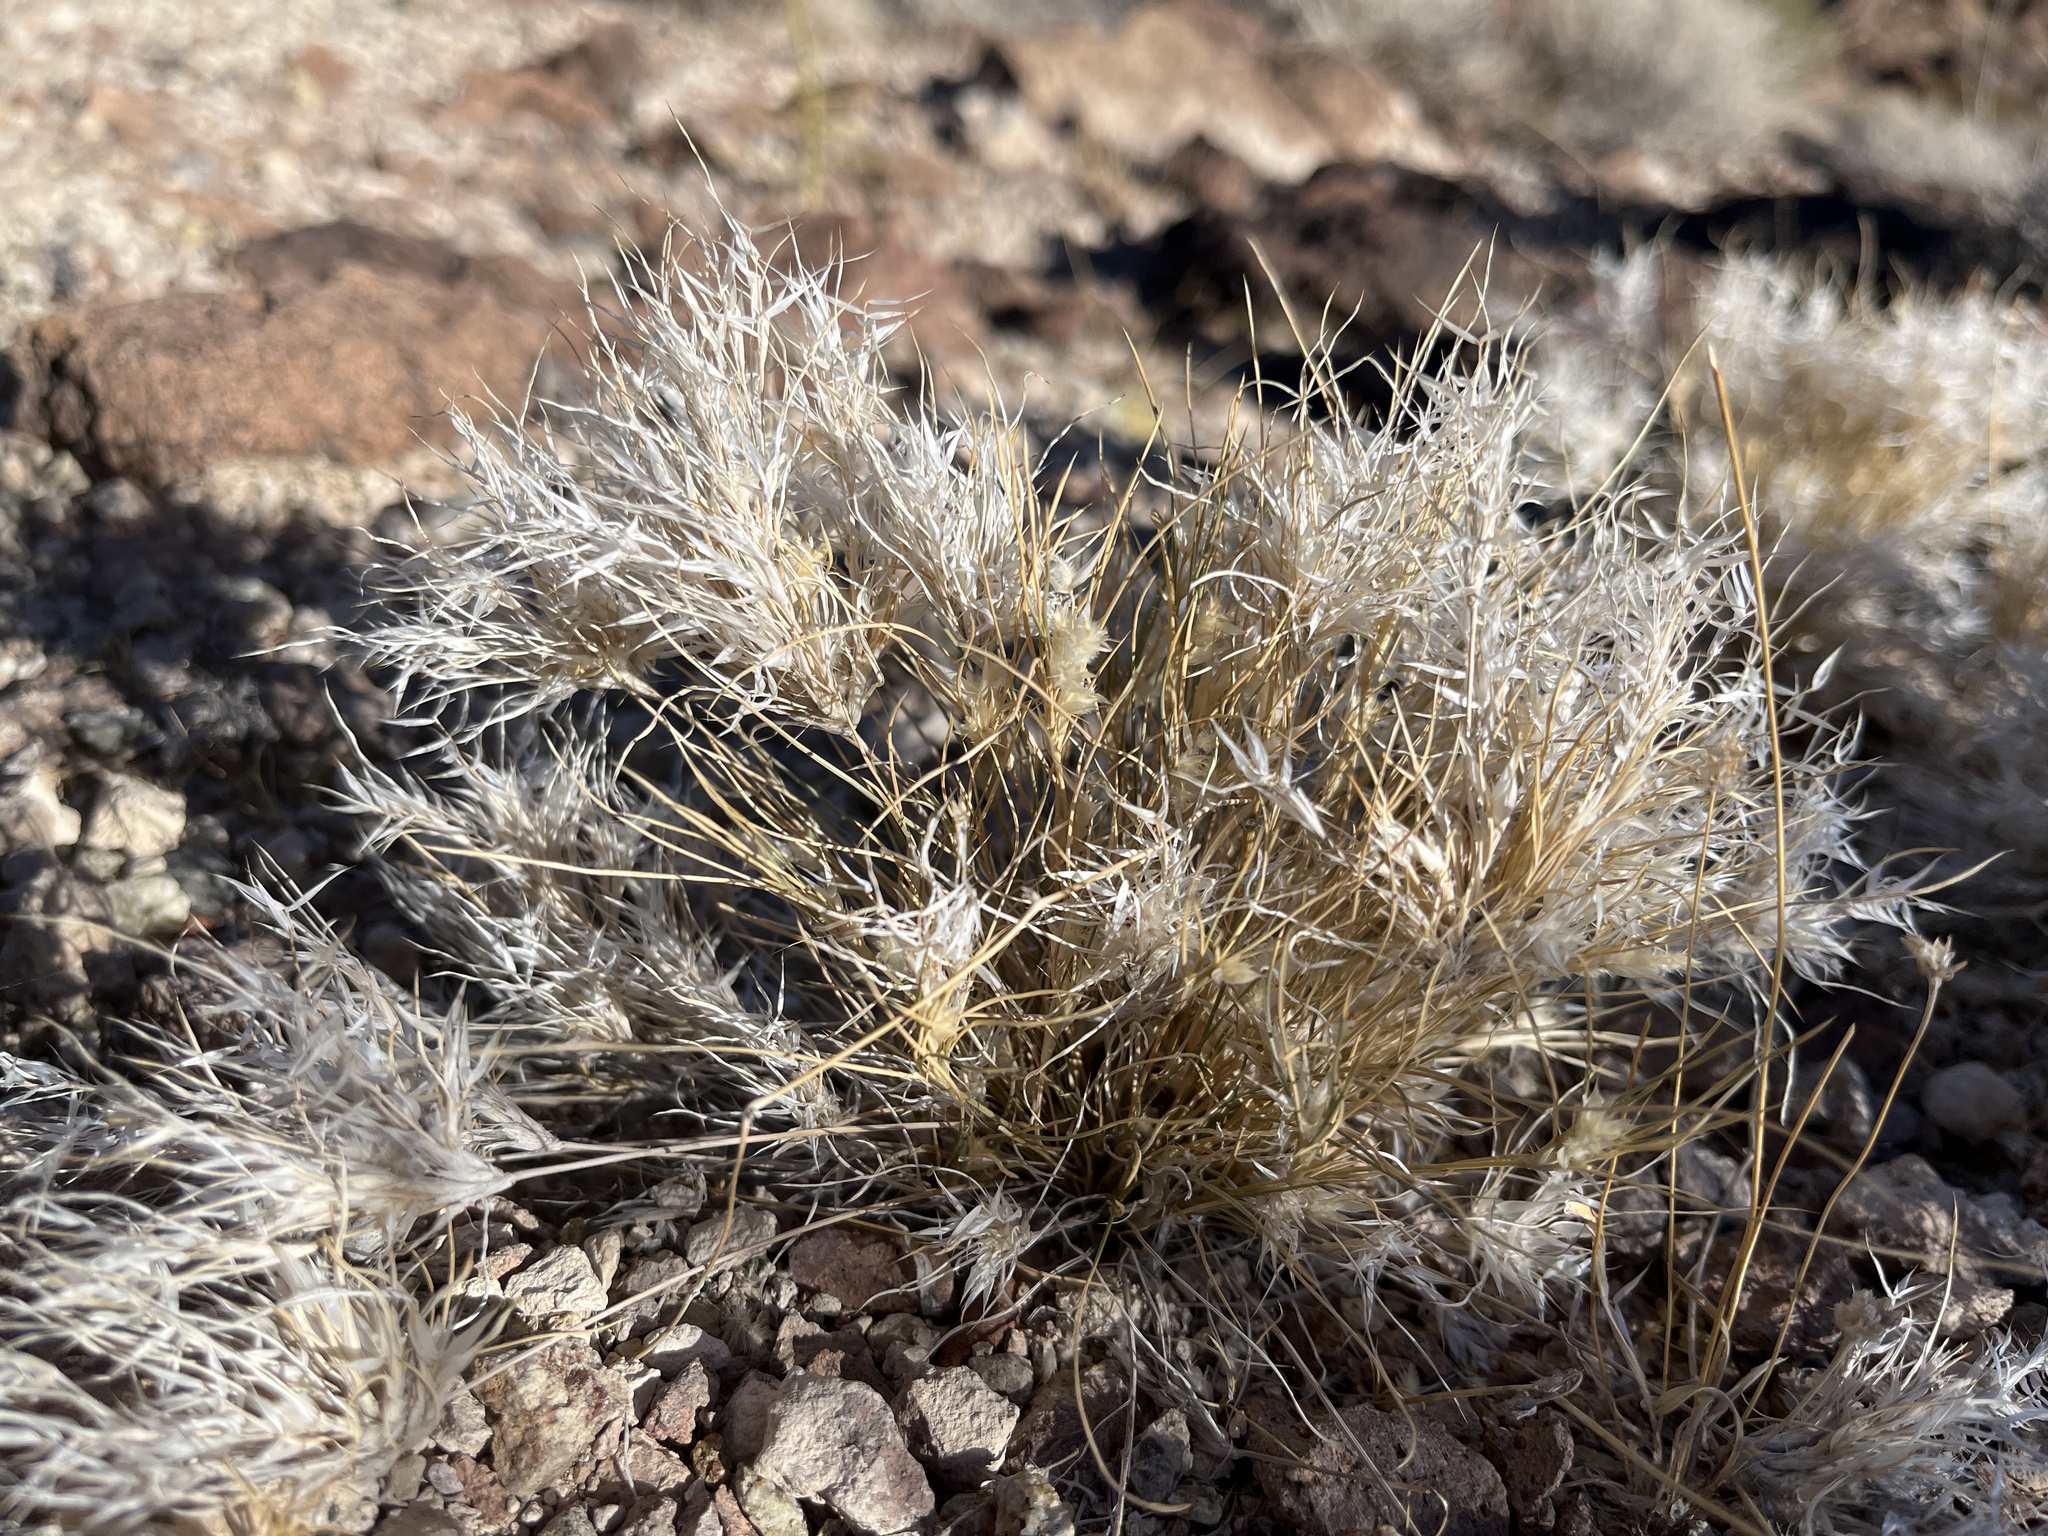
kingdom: Plantae
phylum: Tracheophyta
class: Liliopsida
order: Poales
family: Poaceae
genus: Dasyochloa
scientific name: Dasyochloa pulchella
